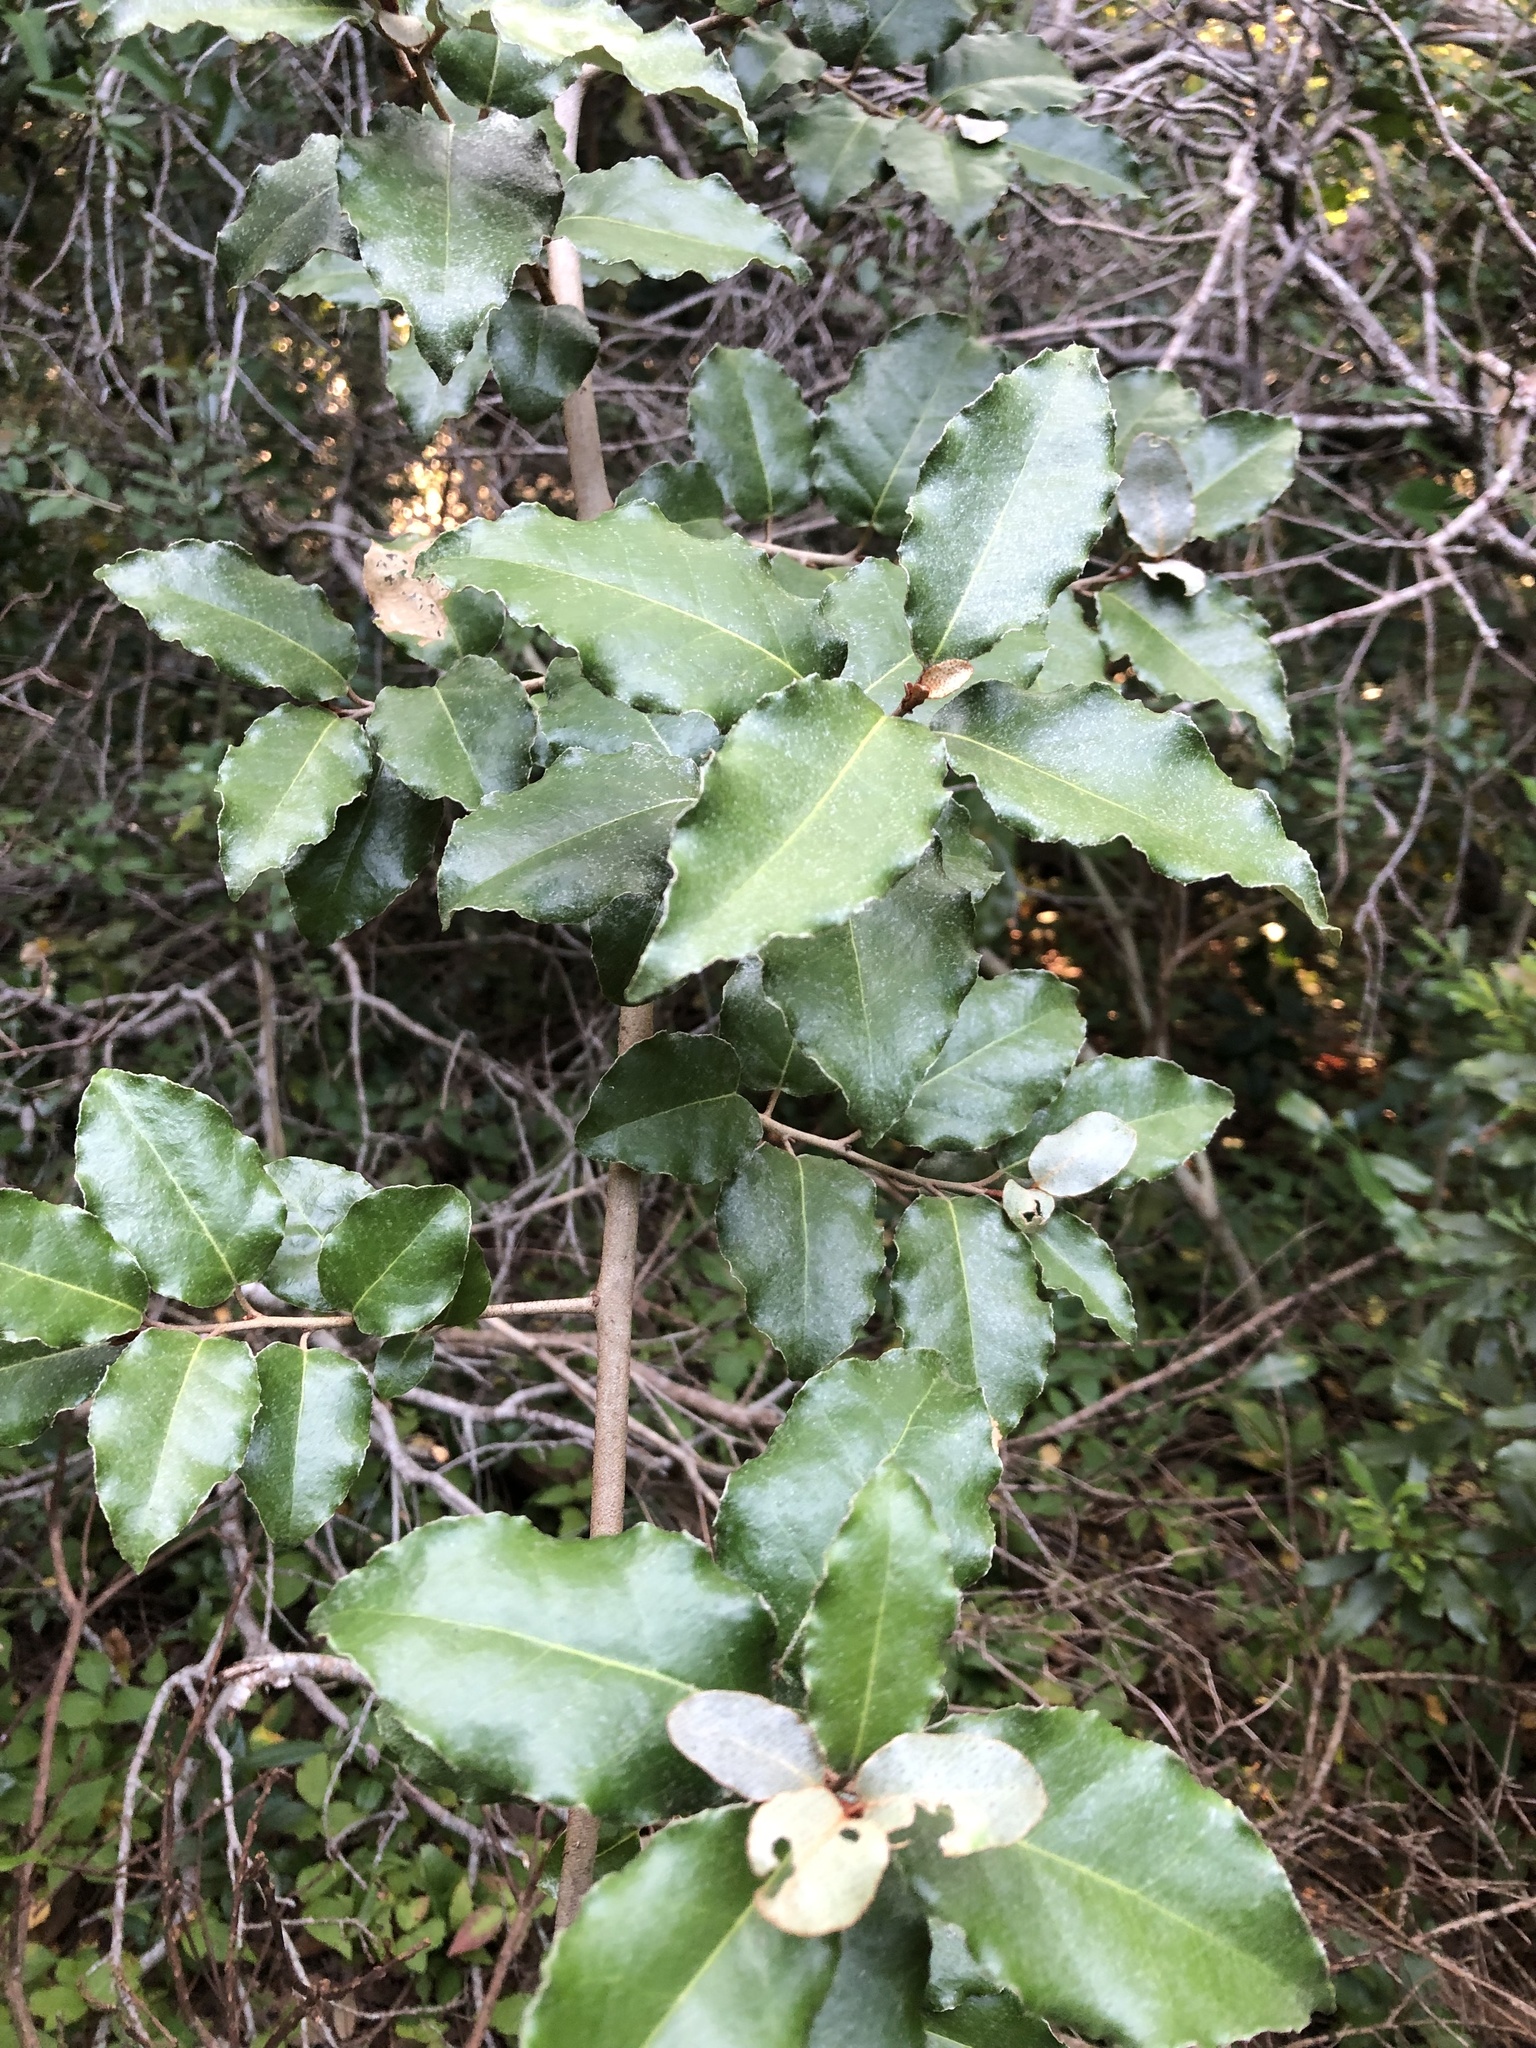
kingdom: Plantae
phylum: Tracheophyta
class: Magnoliopsida
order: Rosales
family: Elaeagnaceae
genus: Elaeagnus
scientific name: Elaeagnus pungens
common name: Spiny oleaster
